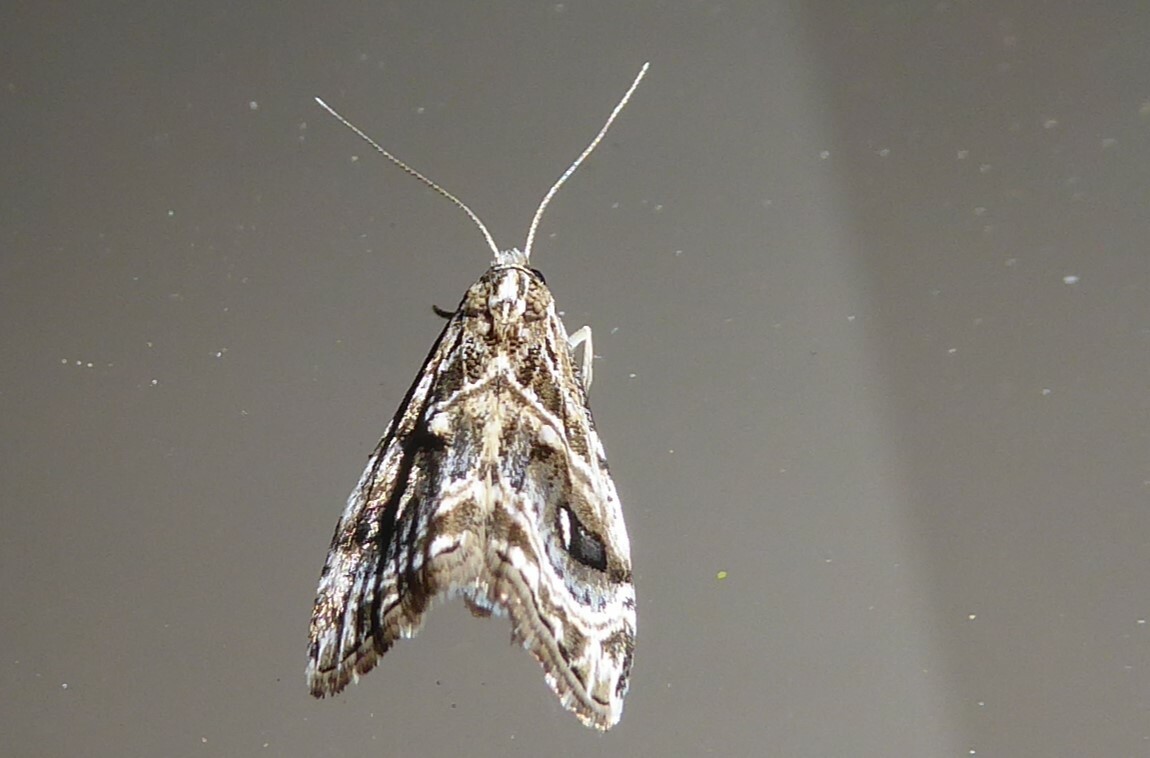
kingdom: Animalia
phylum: Arthropoda
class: Insecta
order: Lepidoptera
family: Crambidae
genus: Gadira
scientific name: Gadira acerella
